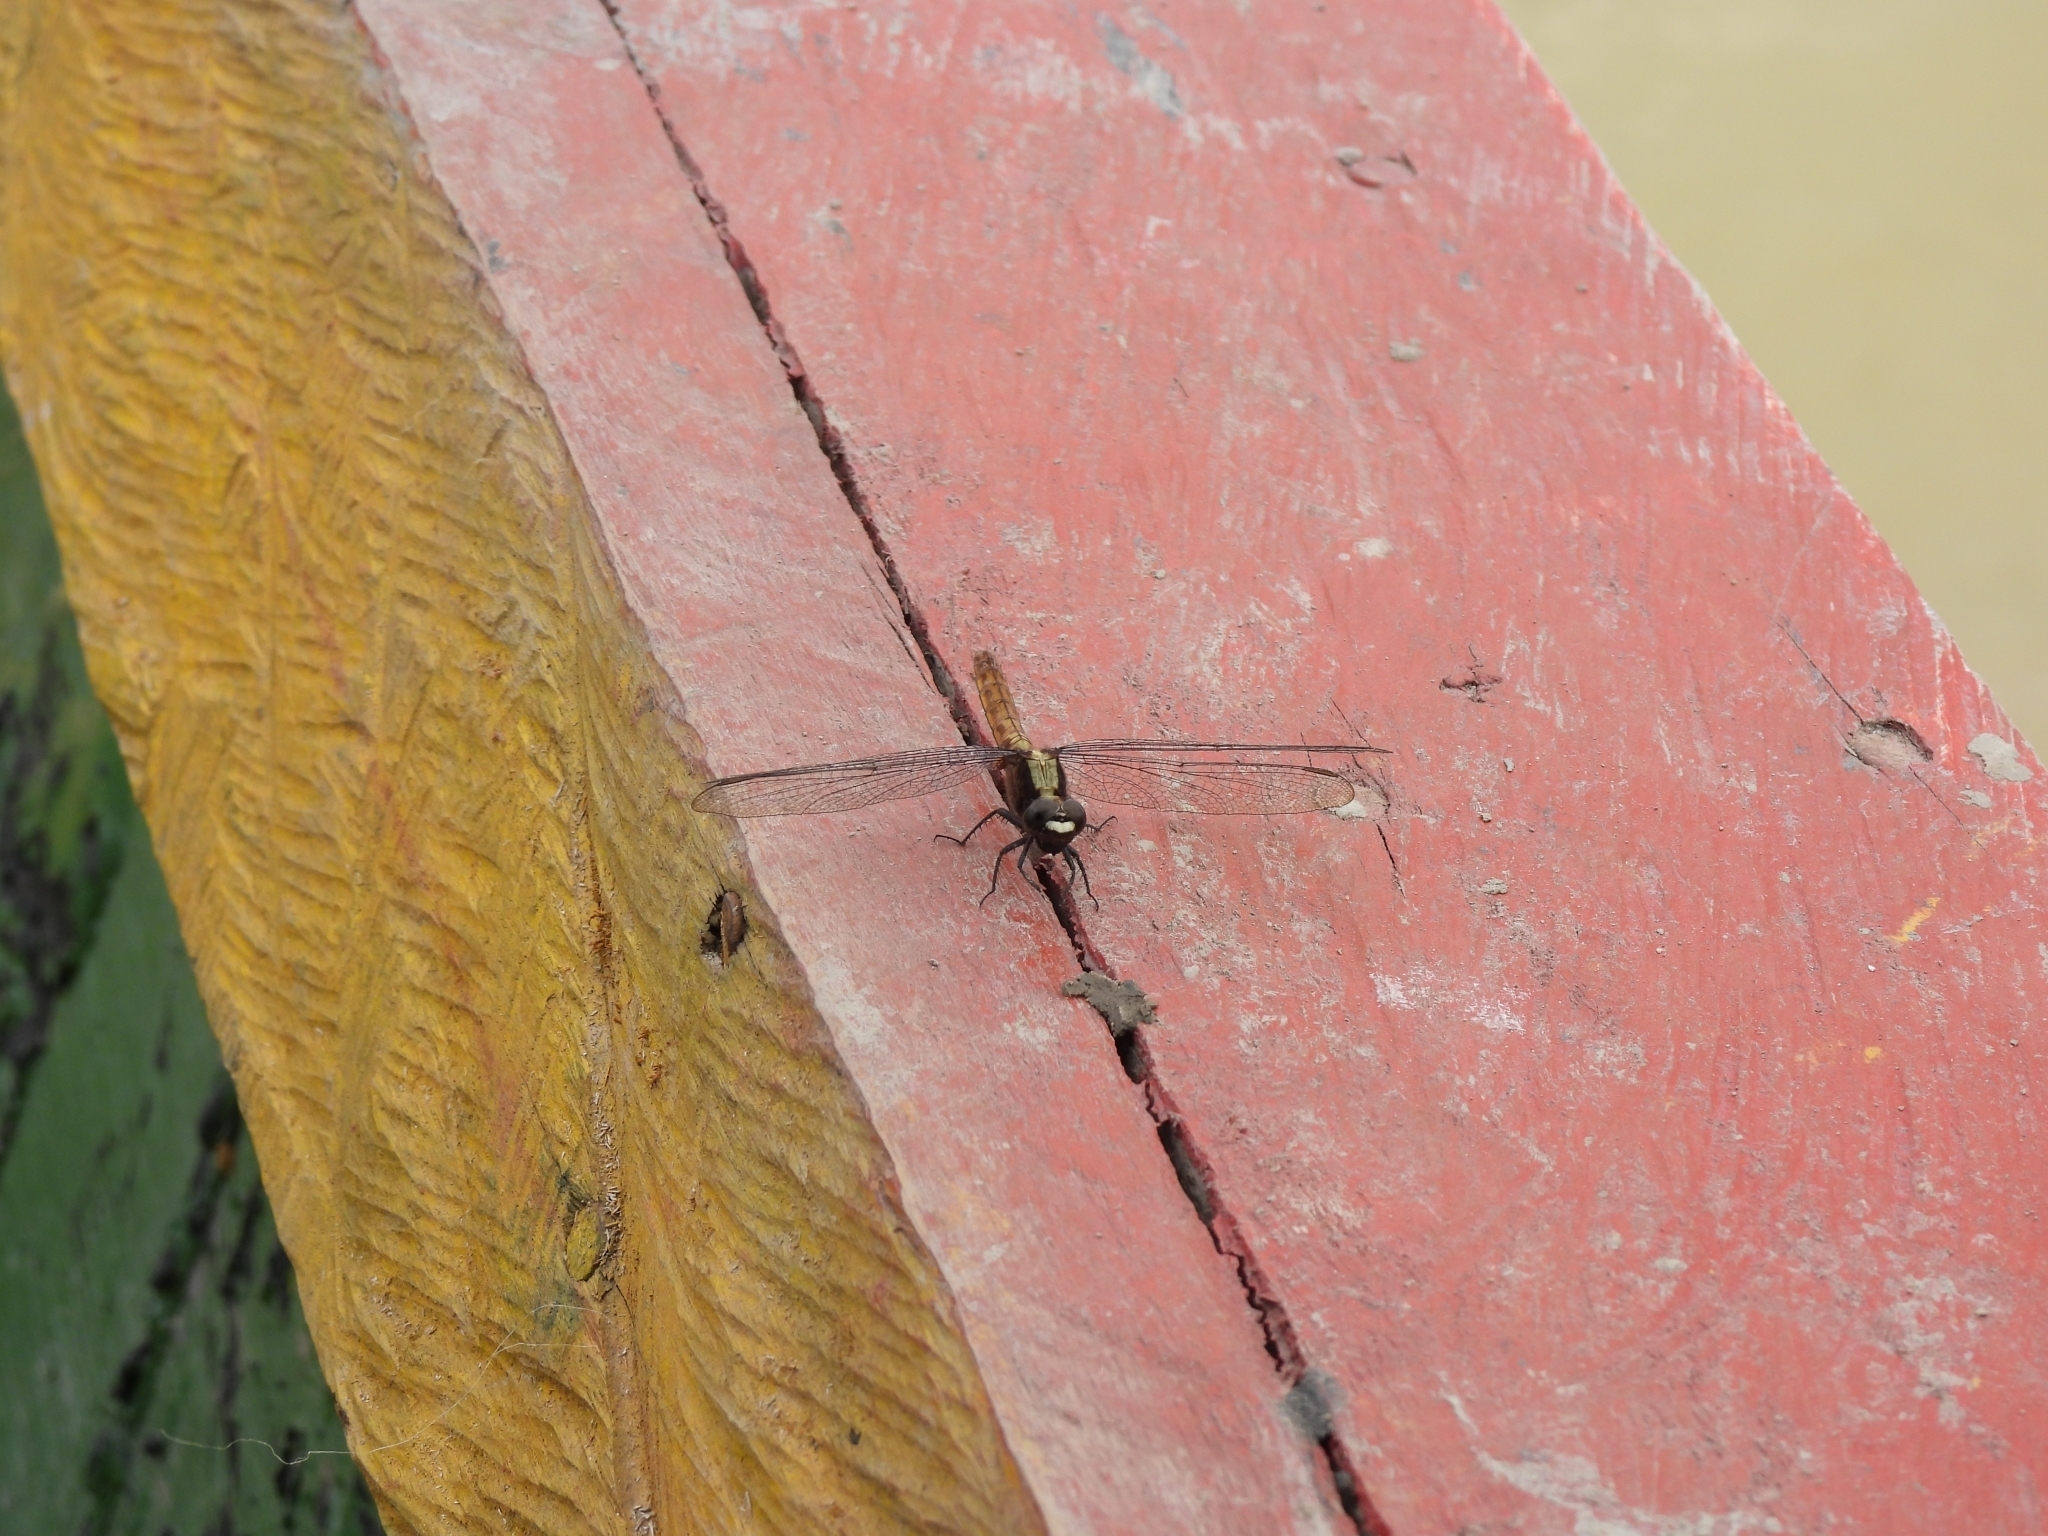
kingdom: Animalia
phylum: Arthropoda
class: Insecta
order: Odonata
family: Libellulidae
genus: Erythemis
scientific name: Erythemis peruviana
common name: Flame-tailed pondhawk
